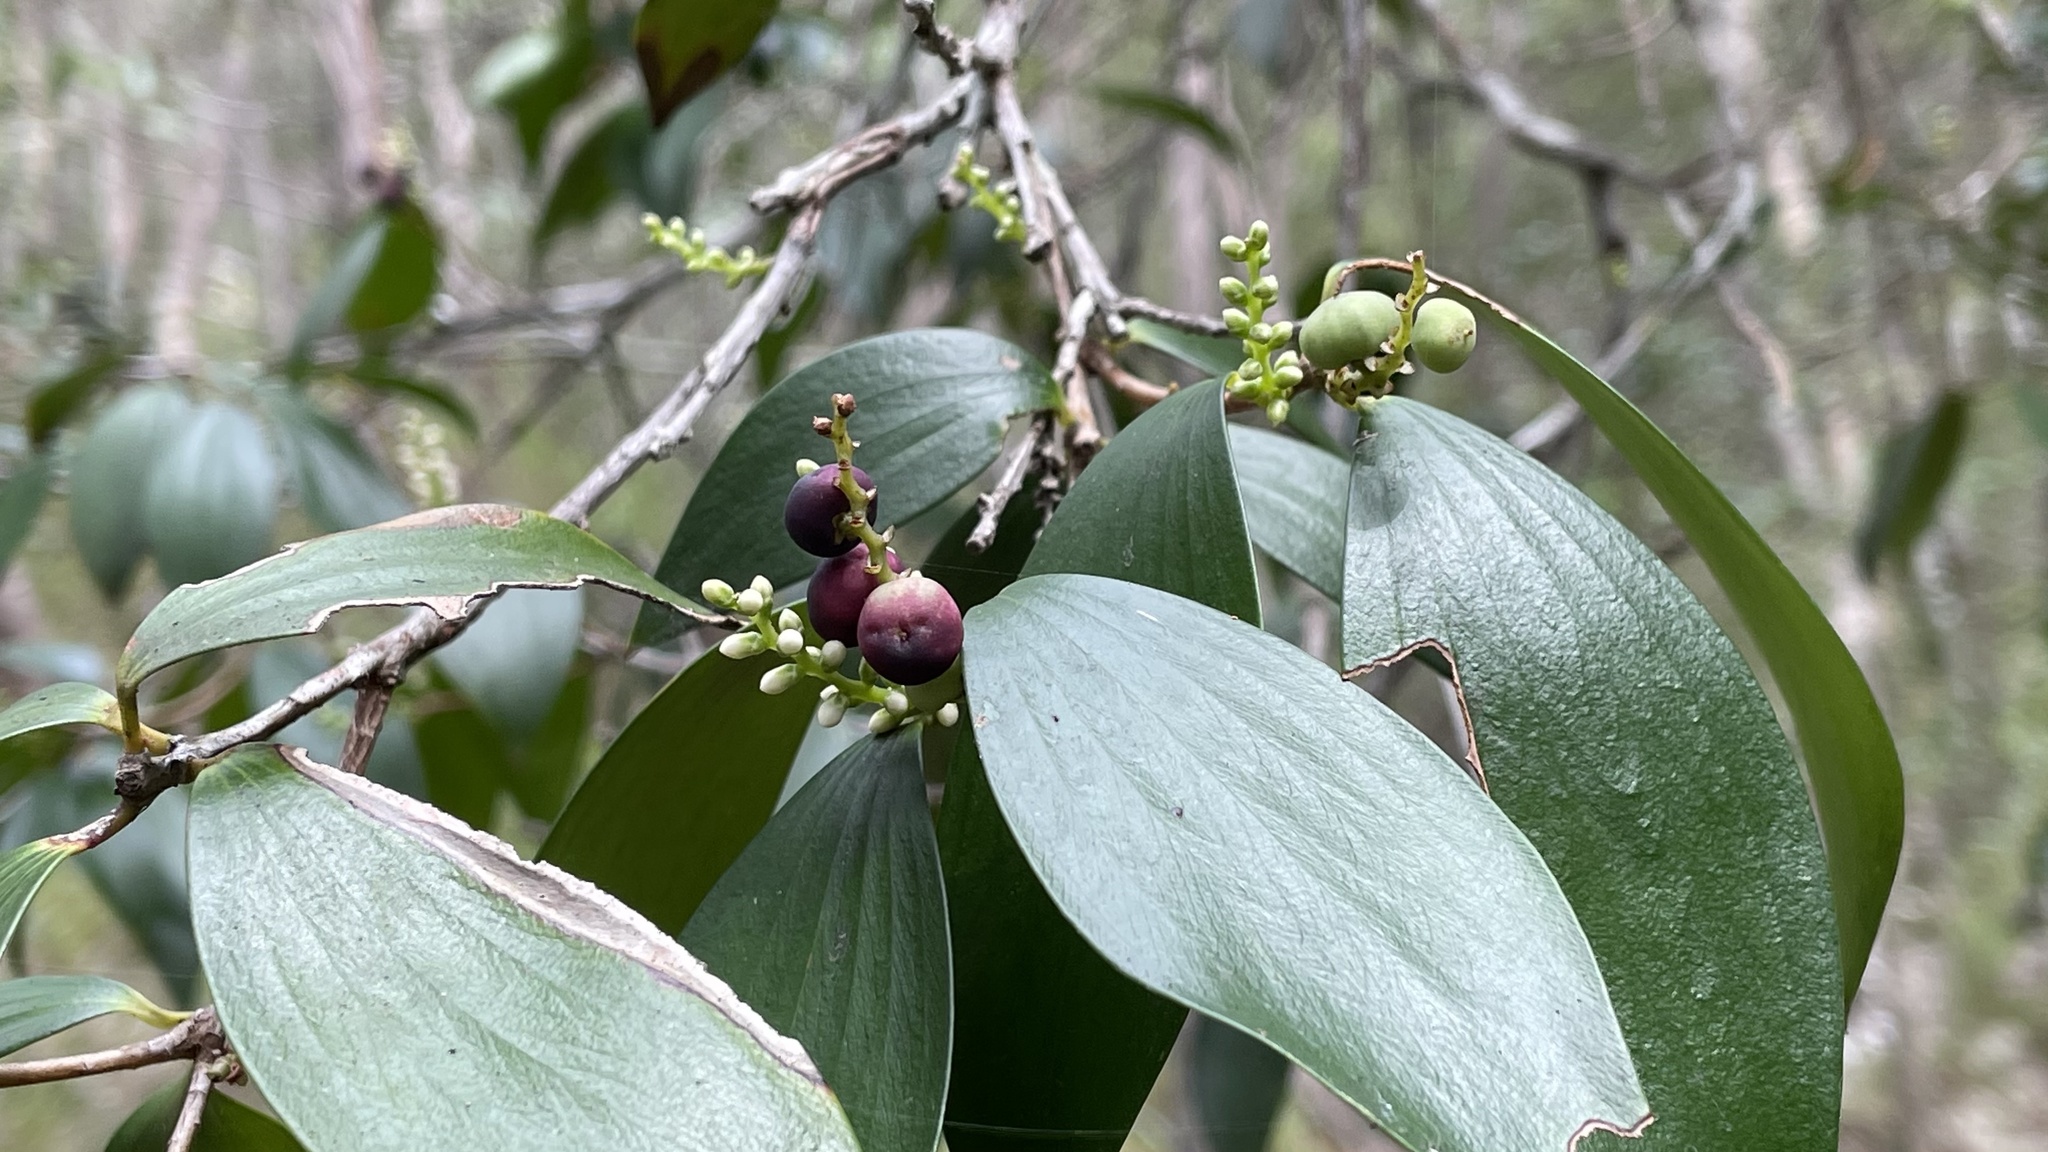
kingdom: Plantae
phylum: Tracheophyta
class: Magnoliopsida
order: Ericales
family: Ericaceae
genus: Trochocarpa
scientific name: Trochocarpa laurina
